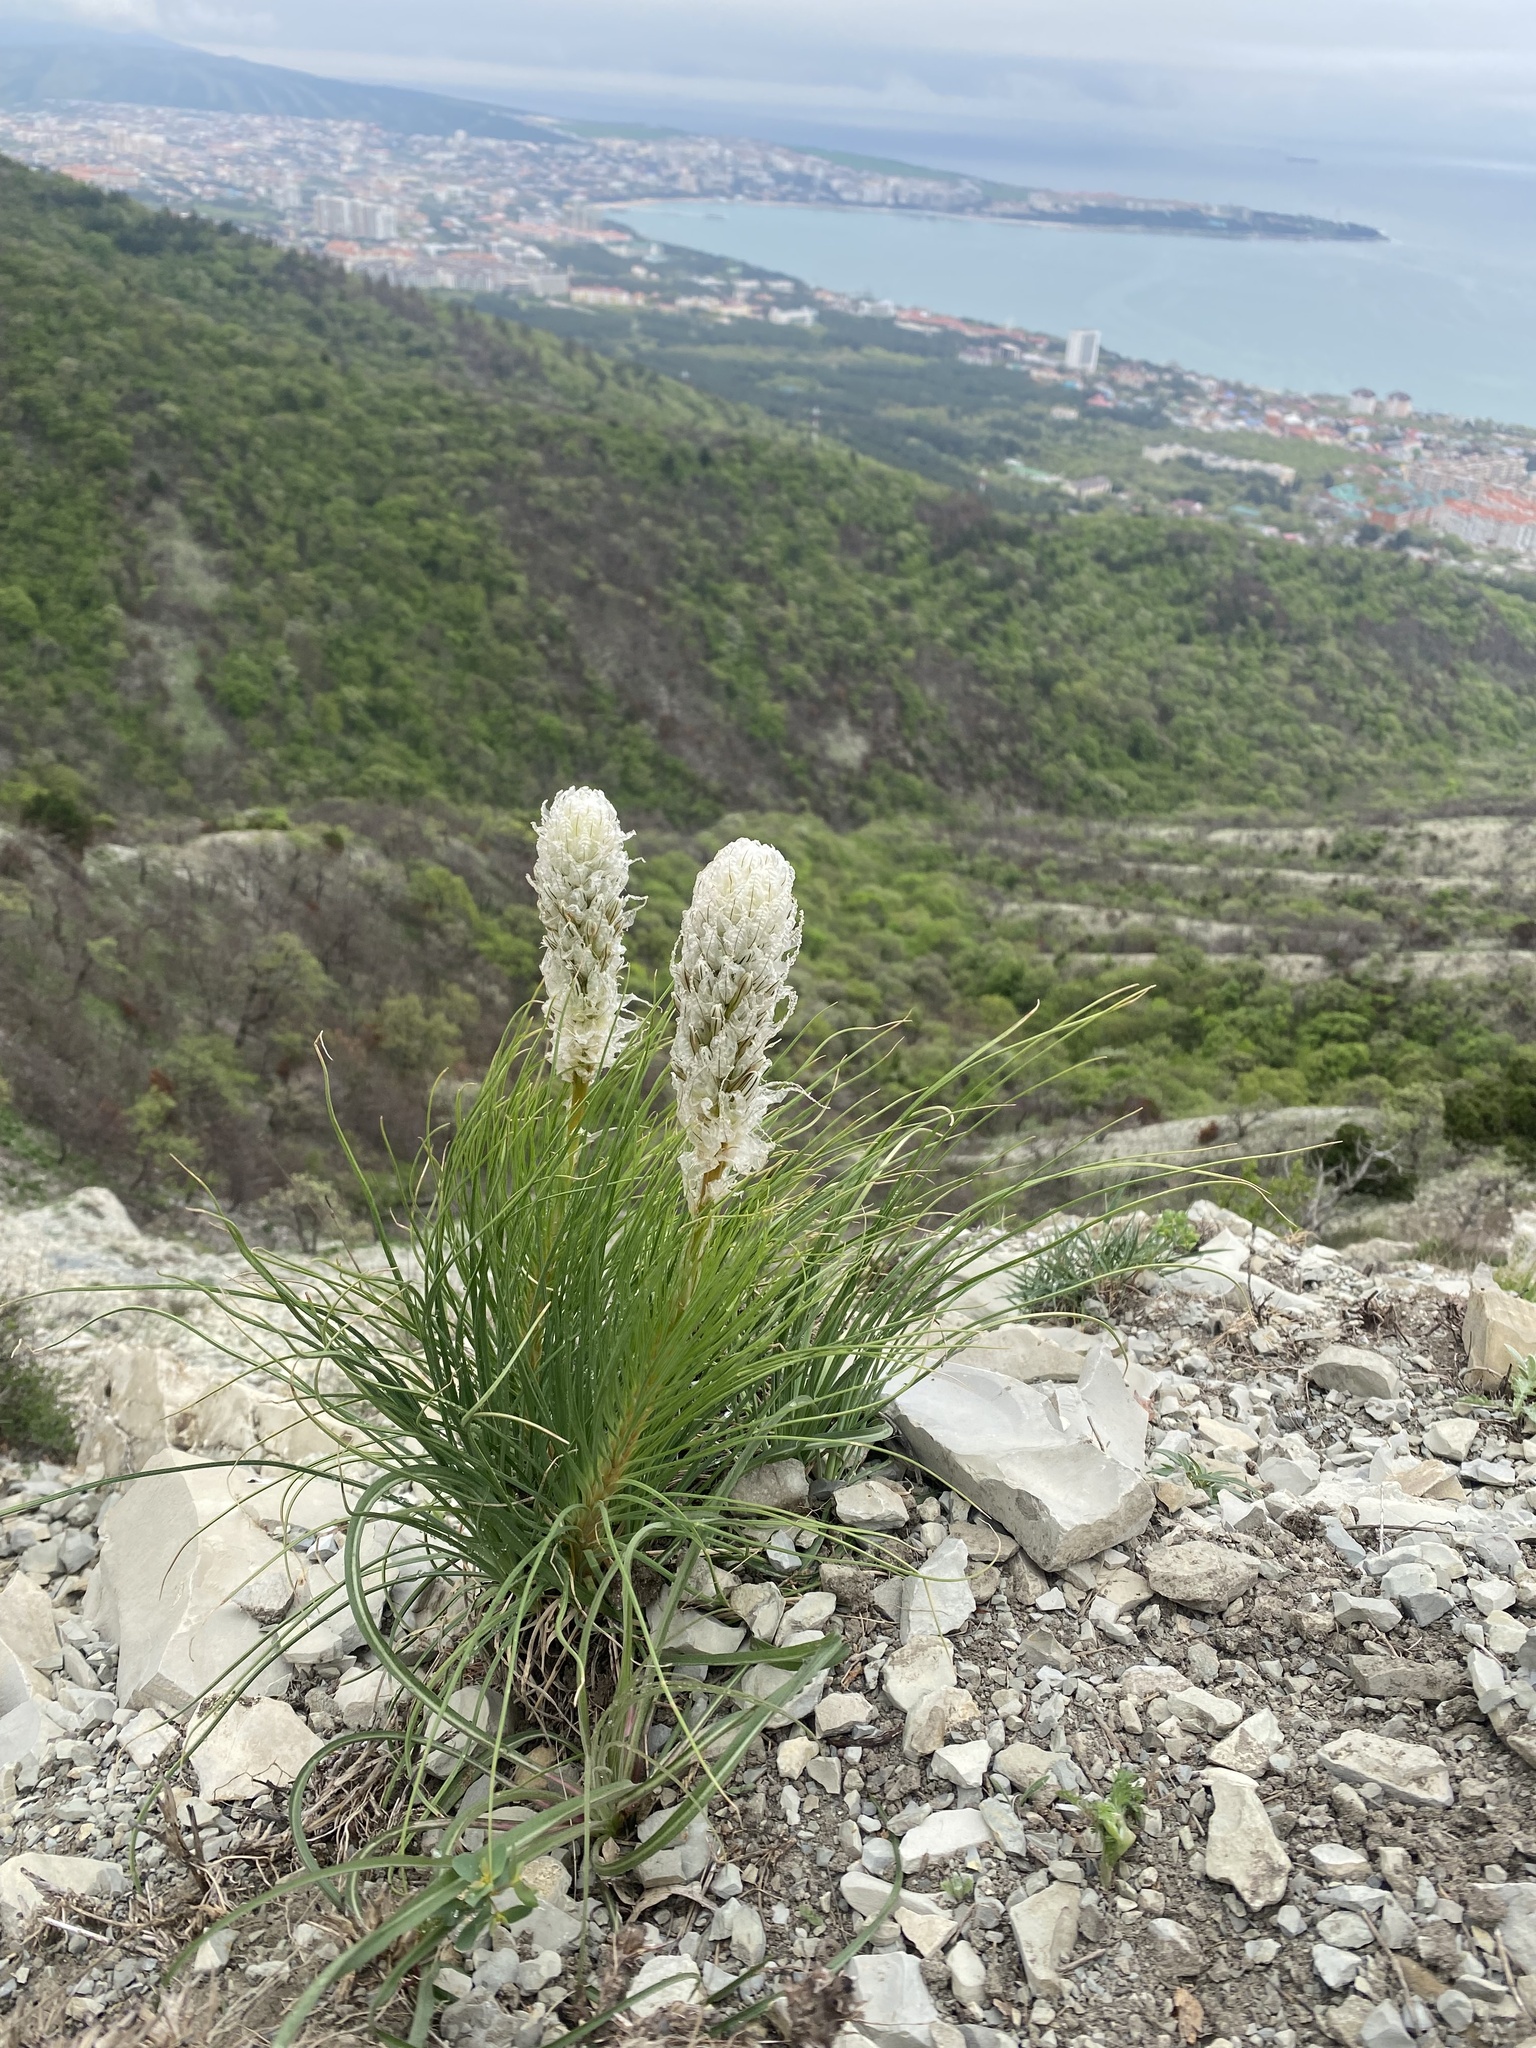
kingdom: Plantae
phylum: Tracheophyta
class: Liliopsida
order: Asparagales
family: Asphodelaceae
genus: Asphodeline
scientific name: Asphodeline taurica
